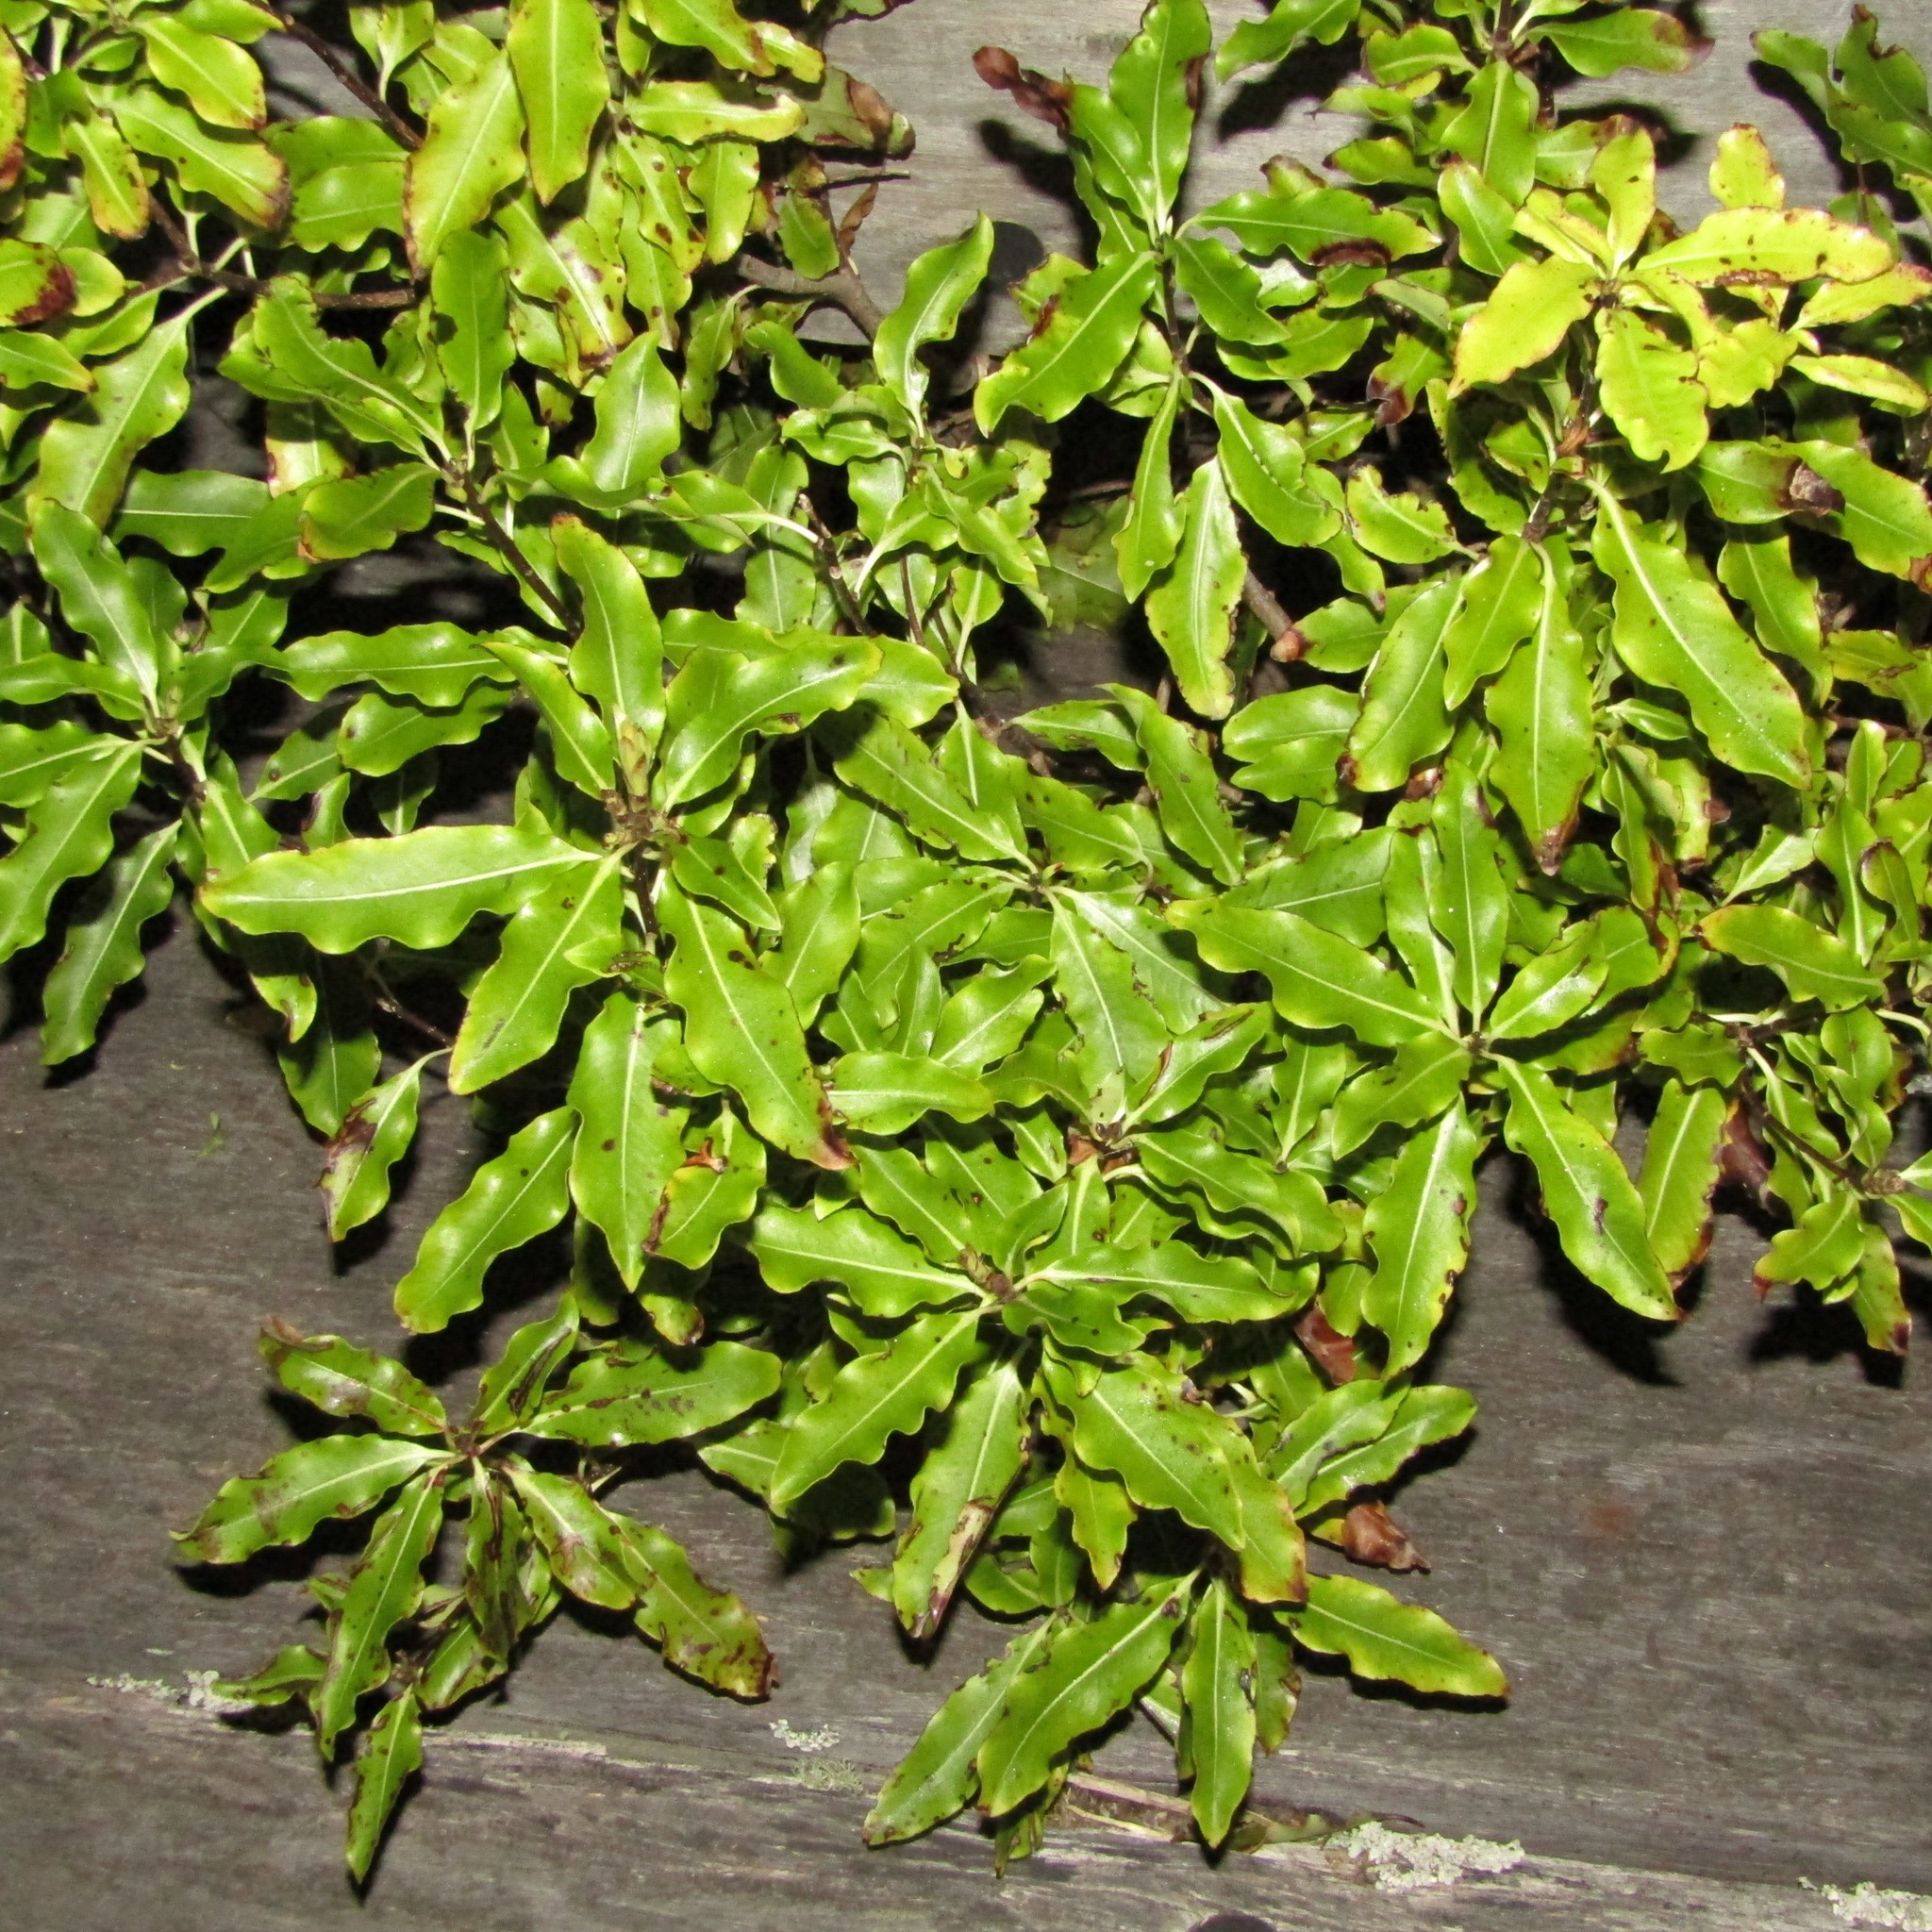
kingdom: Plantae
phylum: Tracheophyta
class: Magnoliopsida
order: Apiales
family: Pittosporaceae
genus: Pittosporum
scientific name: Pittosporum eugenioides
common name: Lemonwood
